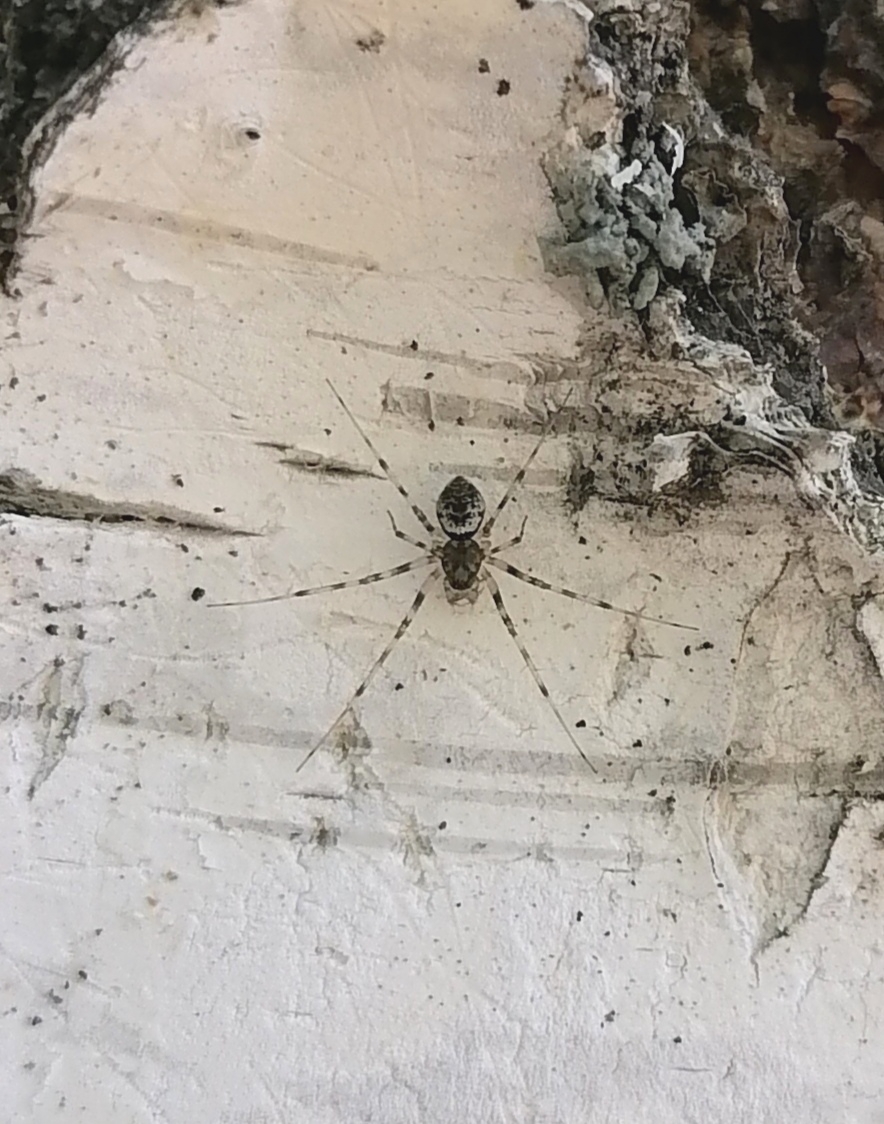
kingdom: Animalia
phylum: Arthropoda
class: Arachnida
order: Araneae
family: Linyphiidae
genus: Drapetisca
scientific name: Drapetisca socialis
